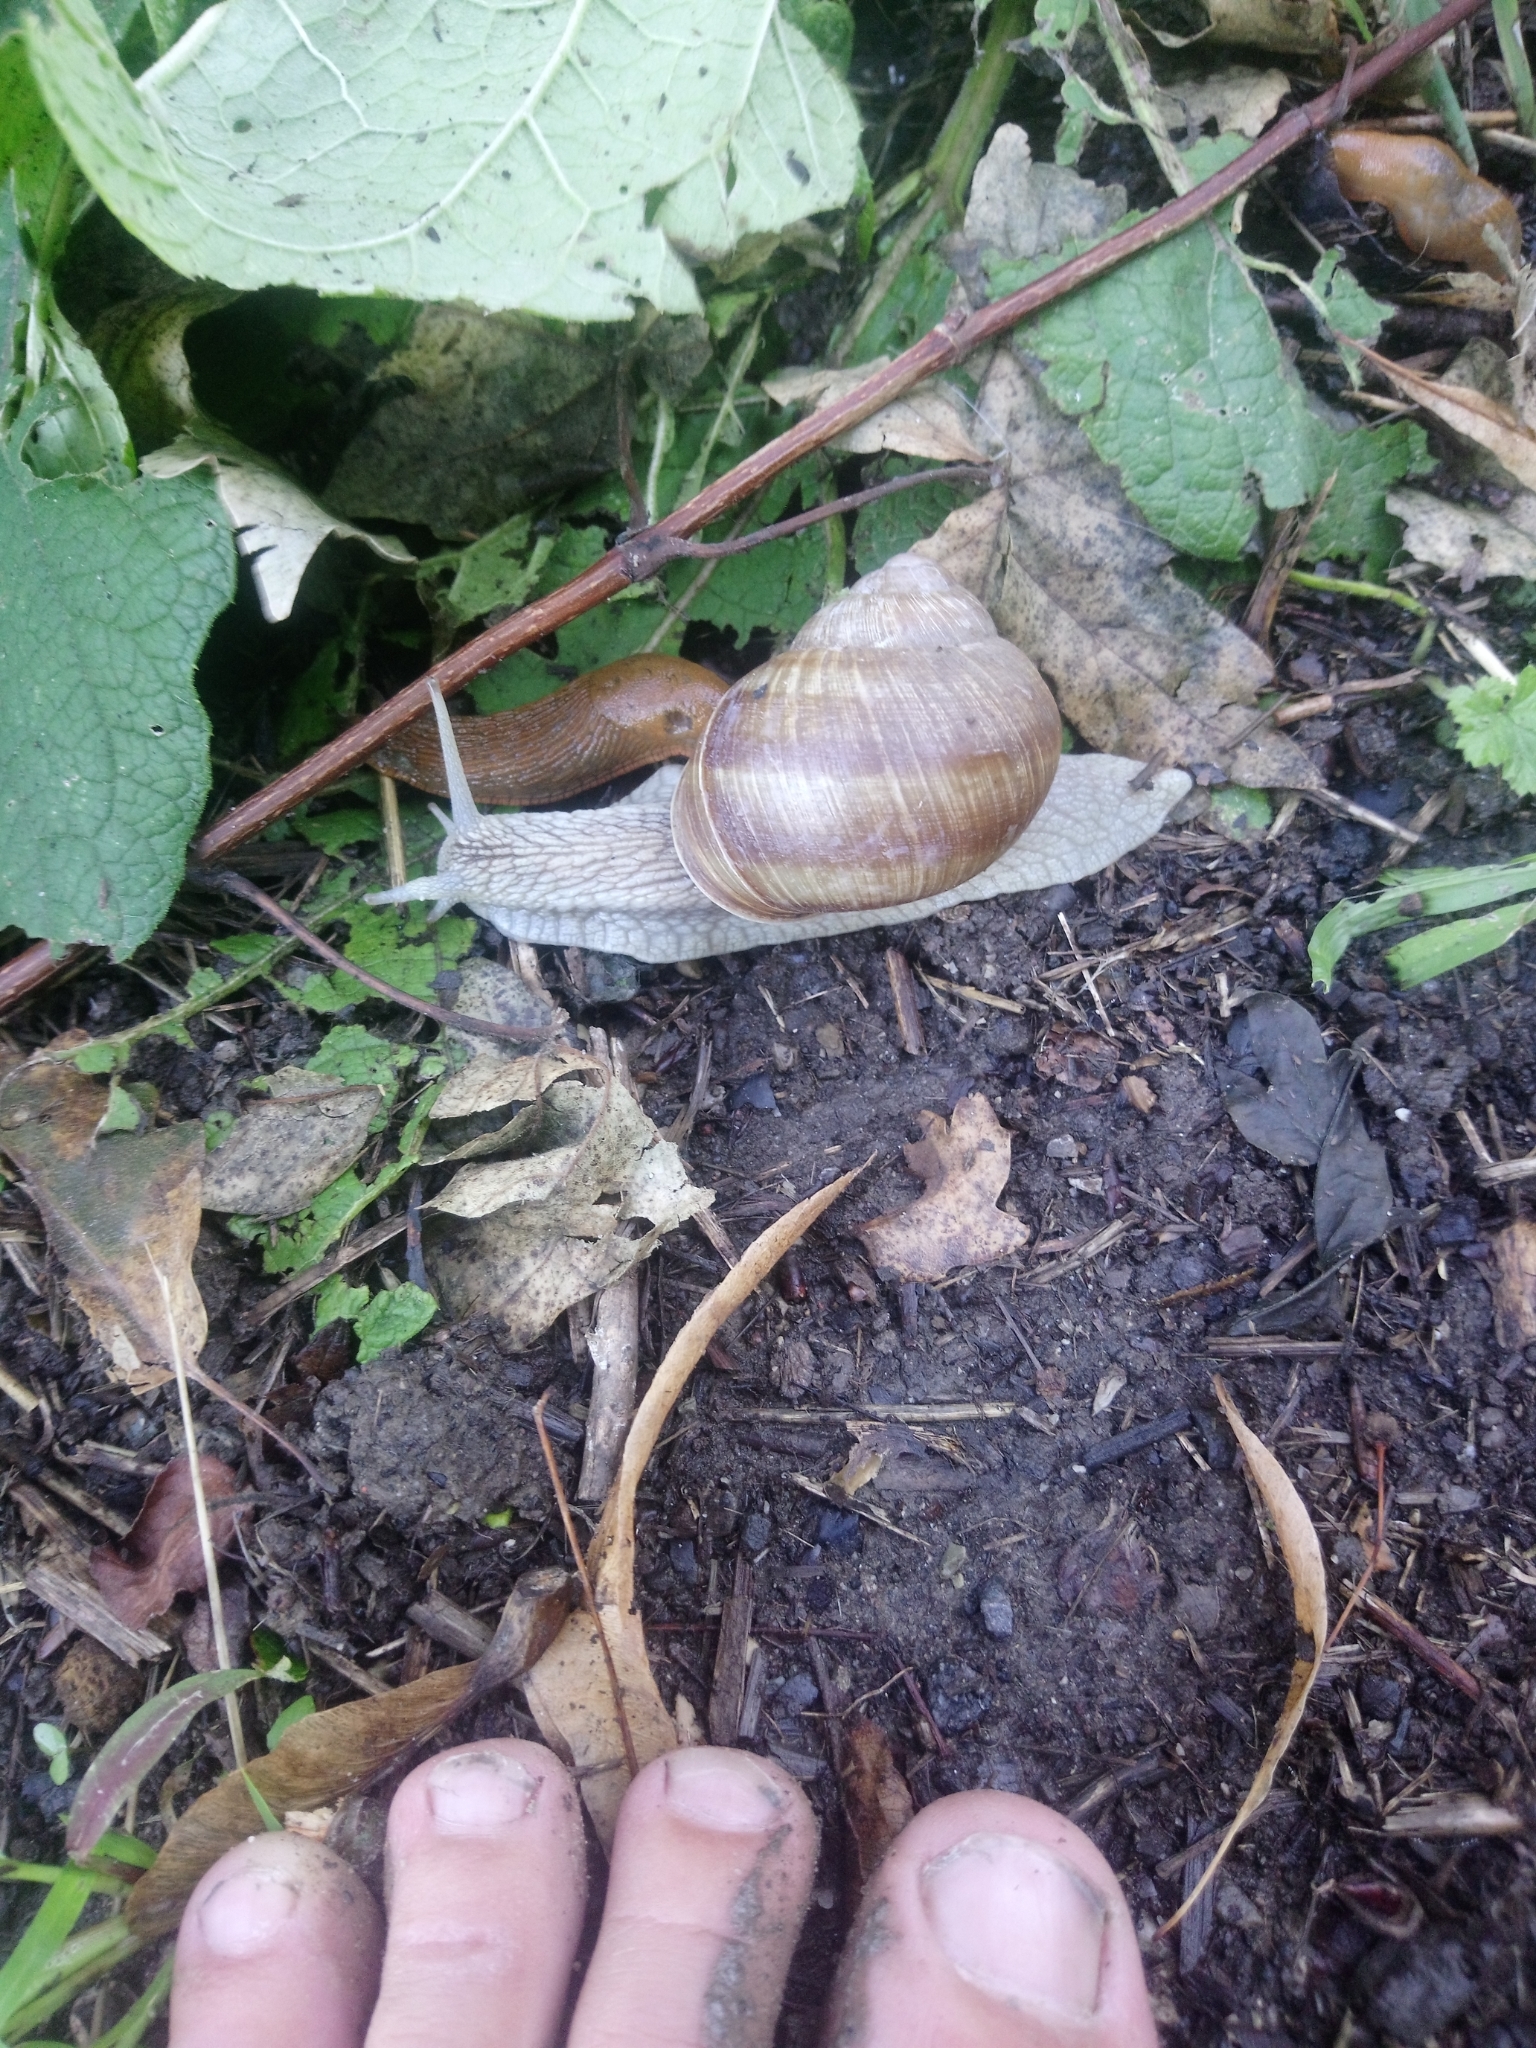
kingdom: Animalia
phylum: Mollusca
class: Gastropoda
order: Stylommatophora
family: Helicidae
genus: Helix
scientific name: Helix pomatia
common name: Roman snail
